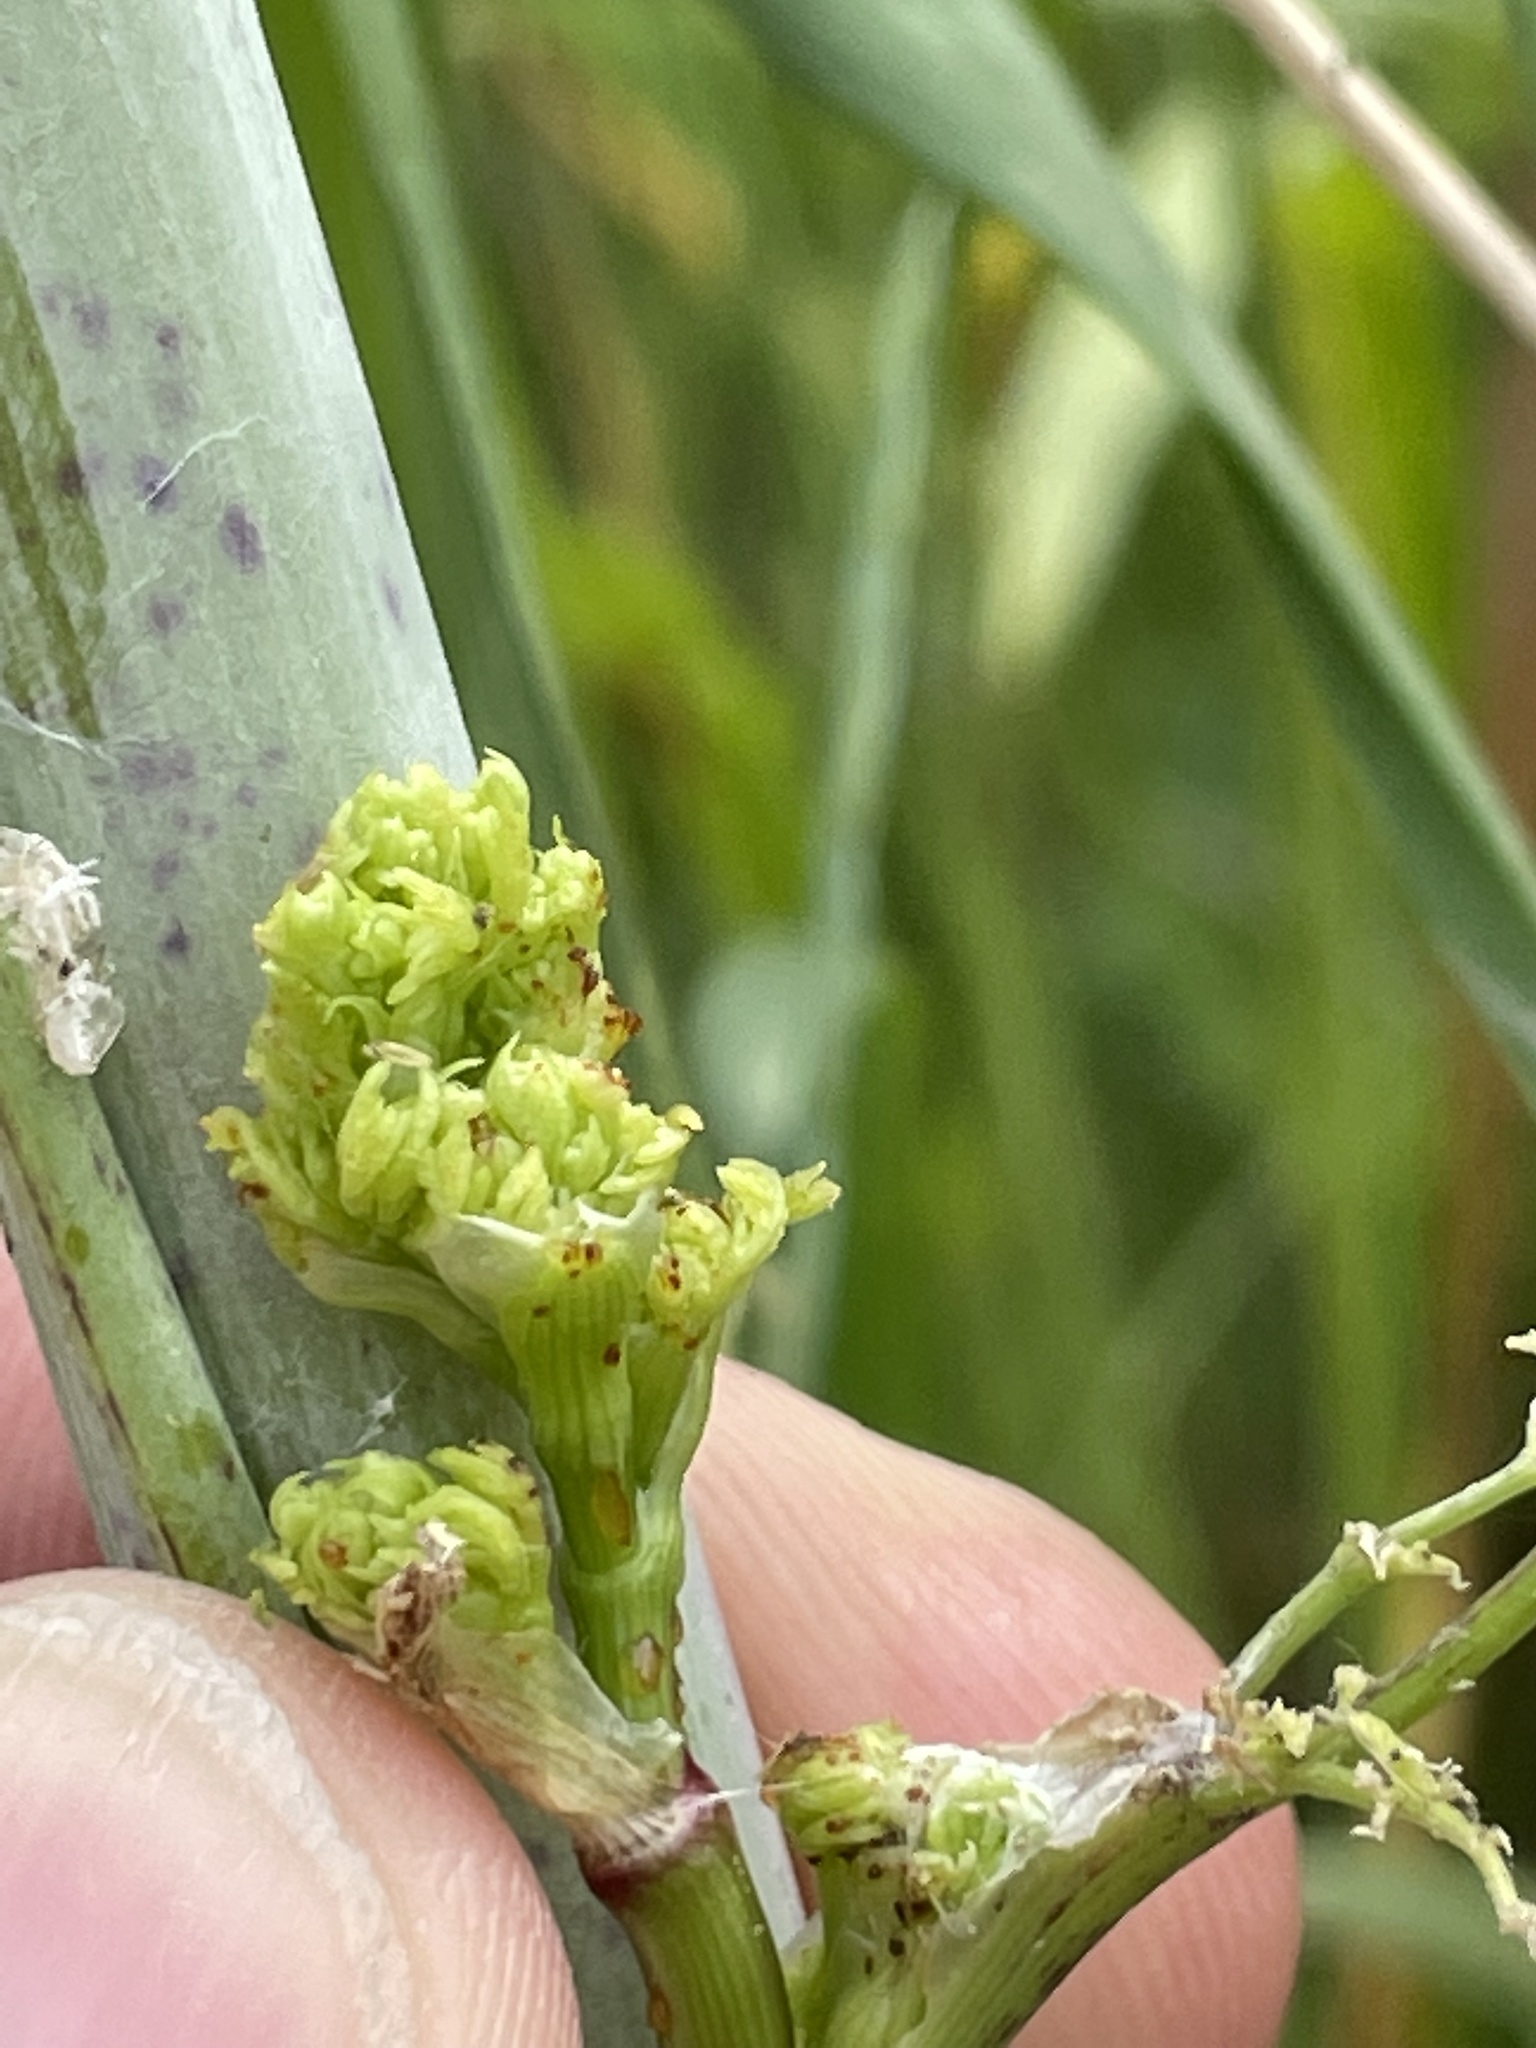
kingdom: Animalia
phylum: Arthropoda
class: Insecta
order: Lepidoptera
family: Depressariidae
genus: Agonopterix
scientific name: Agonopterix alstroemeriana
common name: Moth
